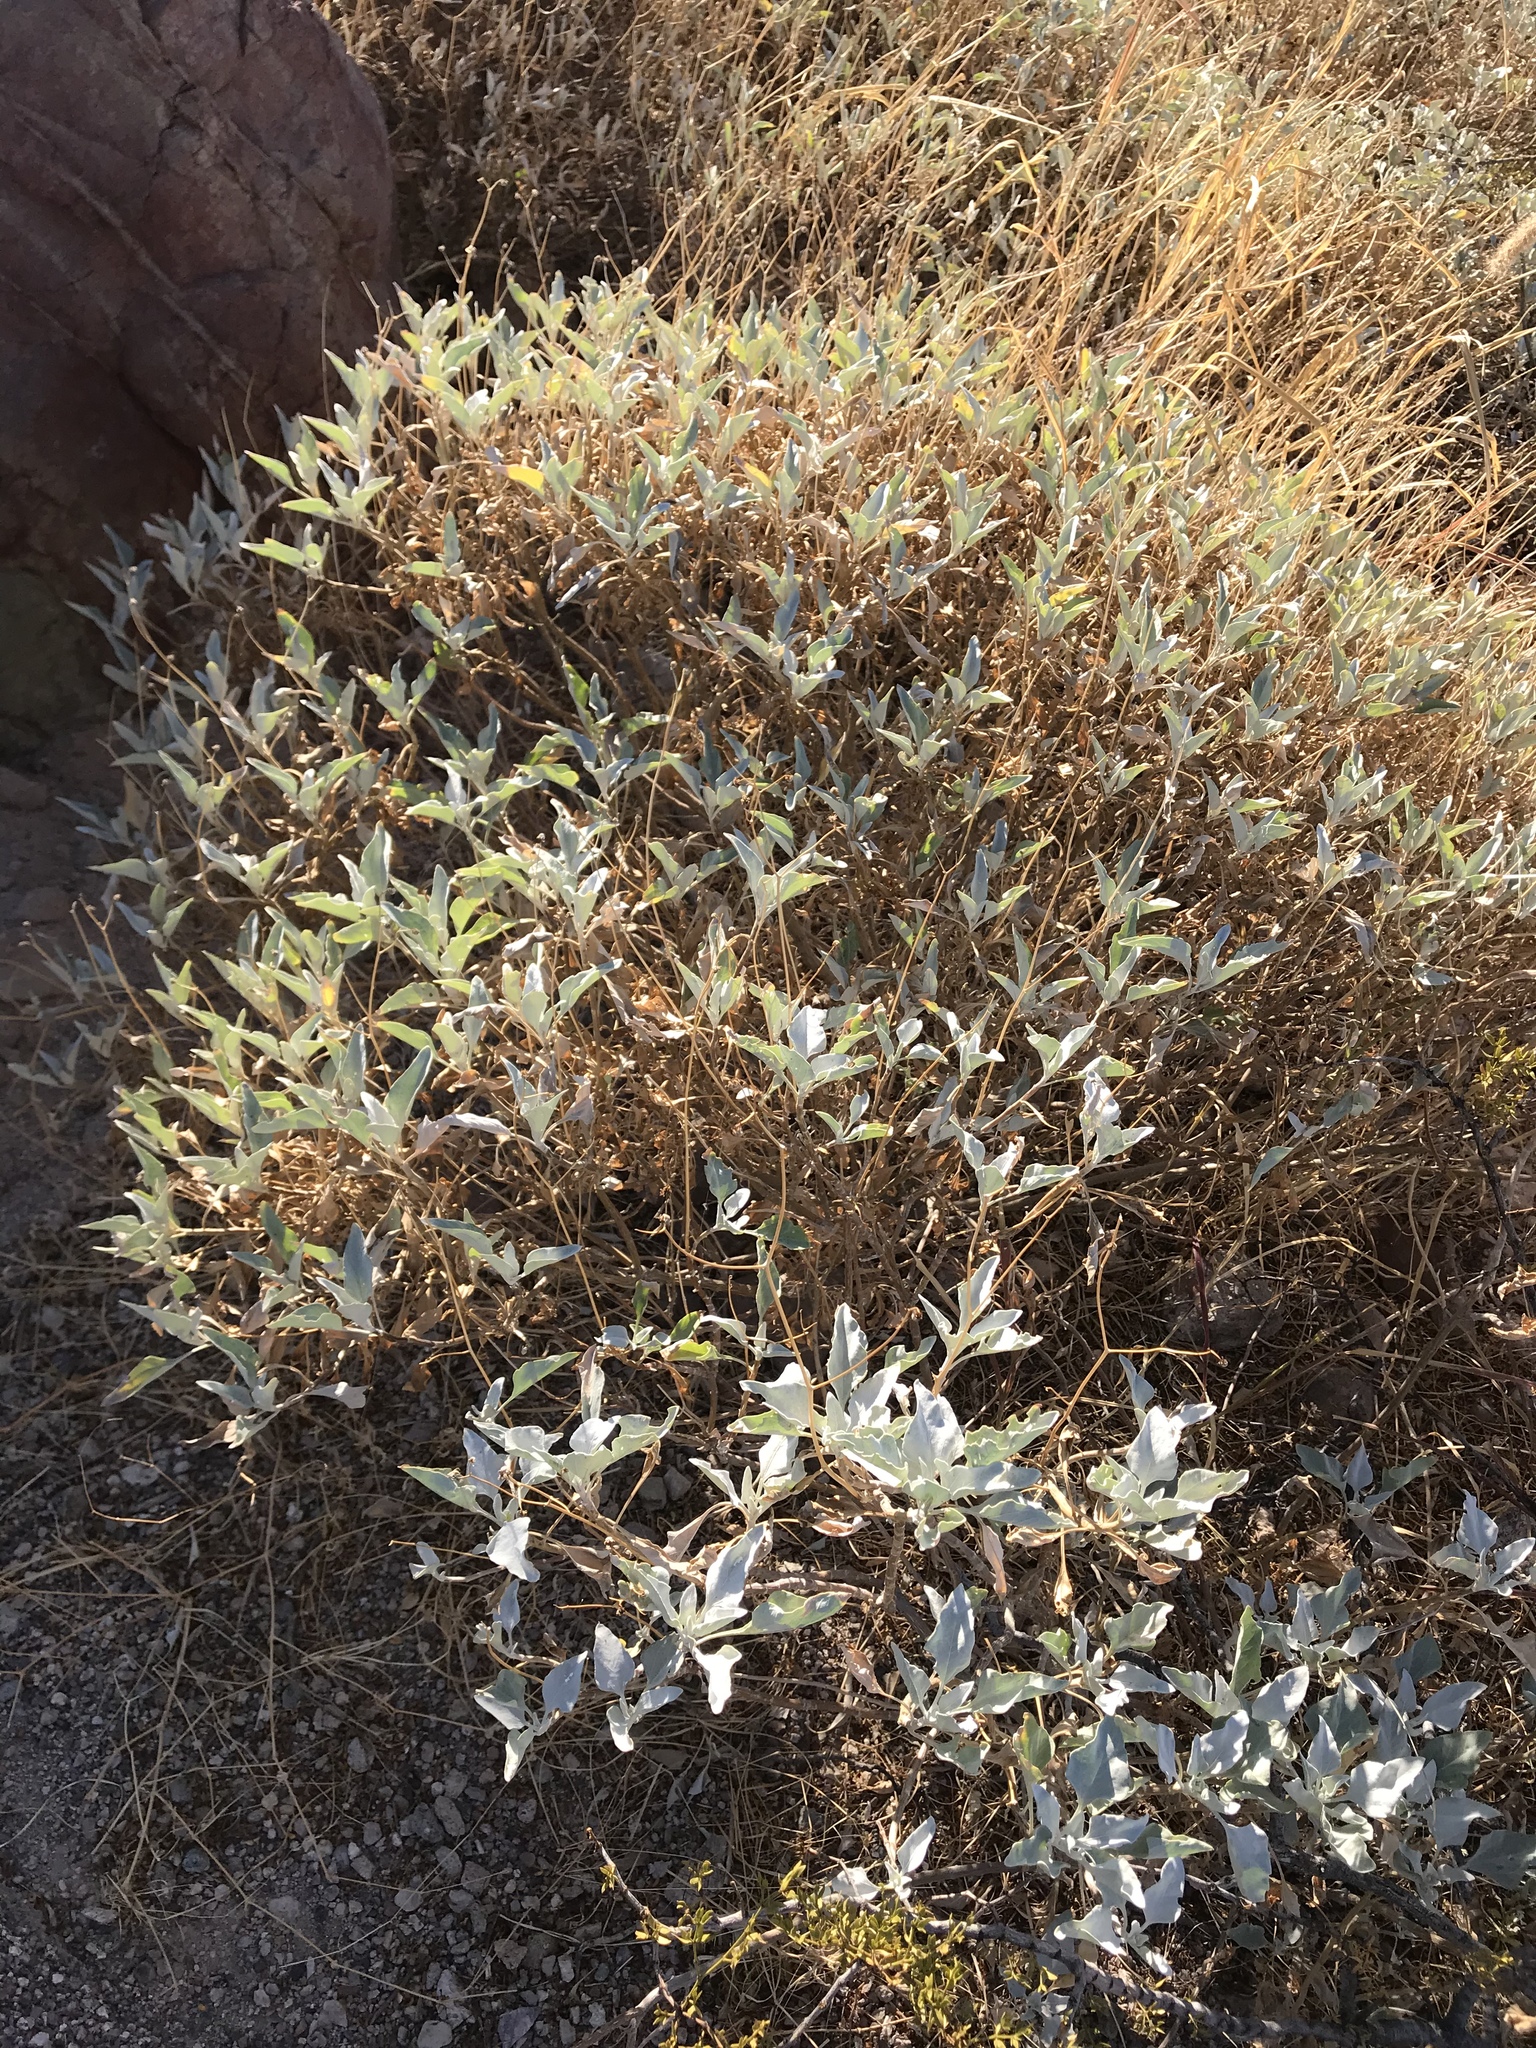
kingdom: Plantae
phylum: Tracheophyta
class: Magnoliopsida
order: Asterales
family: Asteraceae
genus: Encelia
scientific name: Encelia farinosa
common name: Brittlebush
